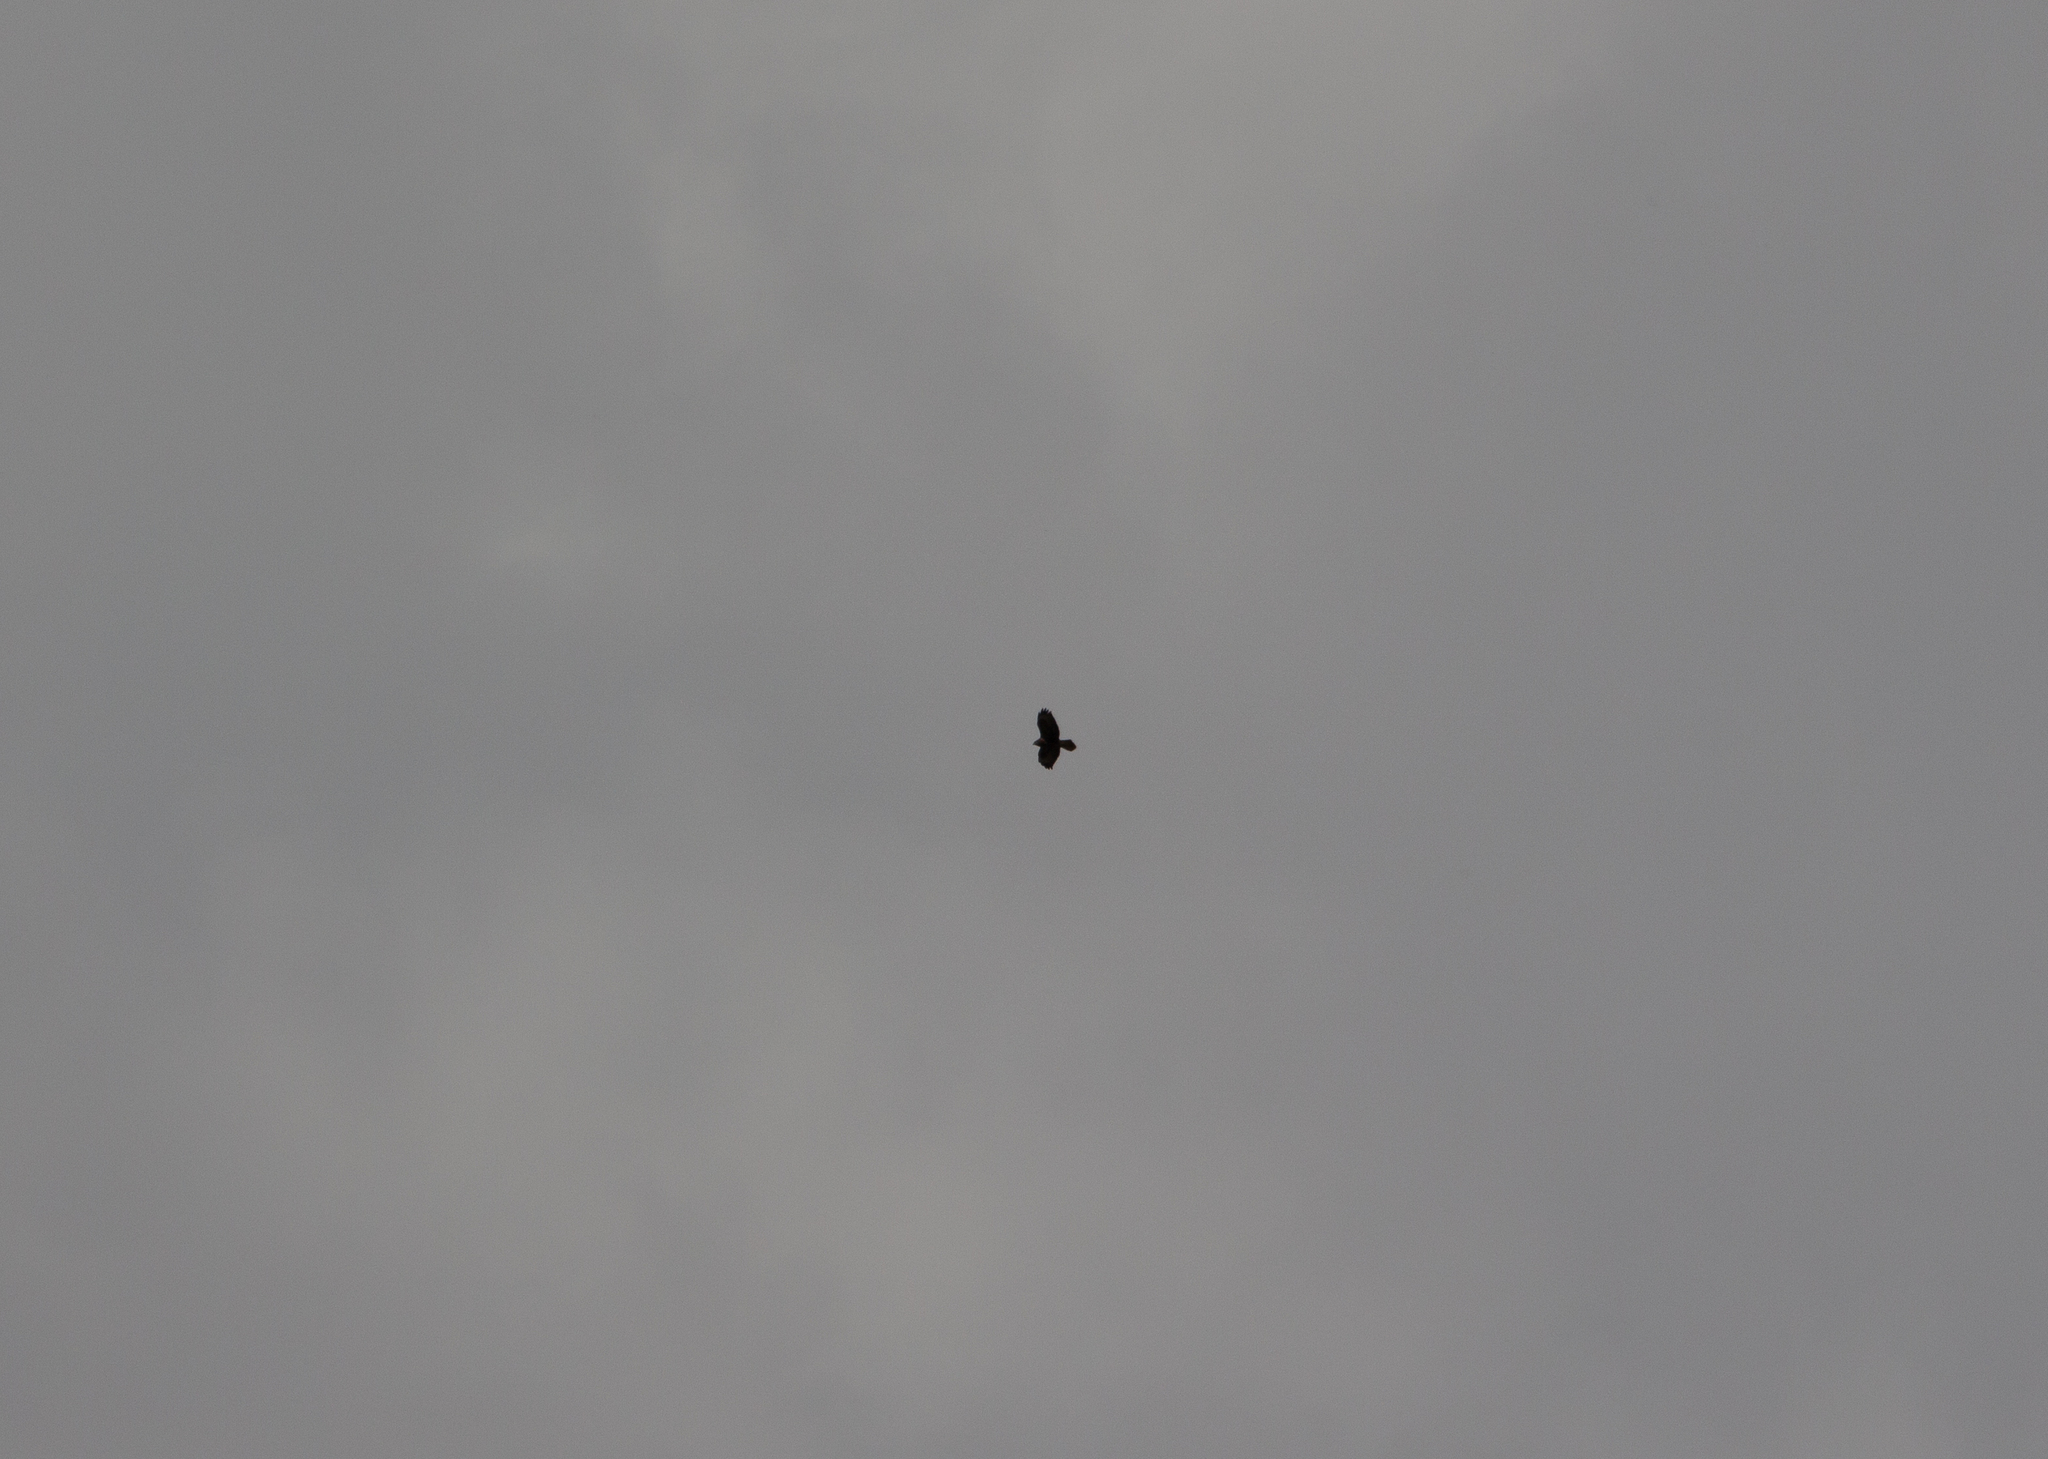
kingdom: Animalia
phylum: Chordata
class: Aves
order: Accipitriformes
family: Accipitridae
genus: Buteo
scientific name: Buteo buteo
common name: Common buzzard
